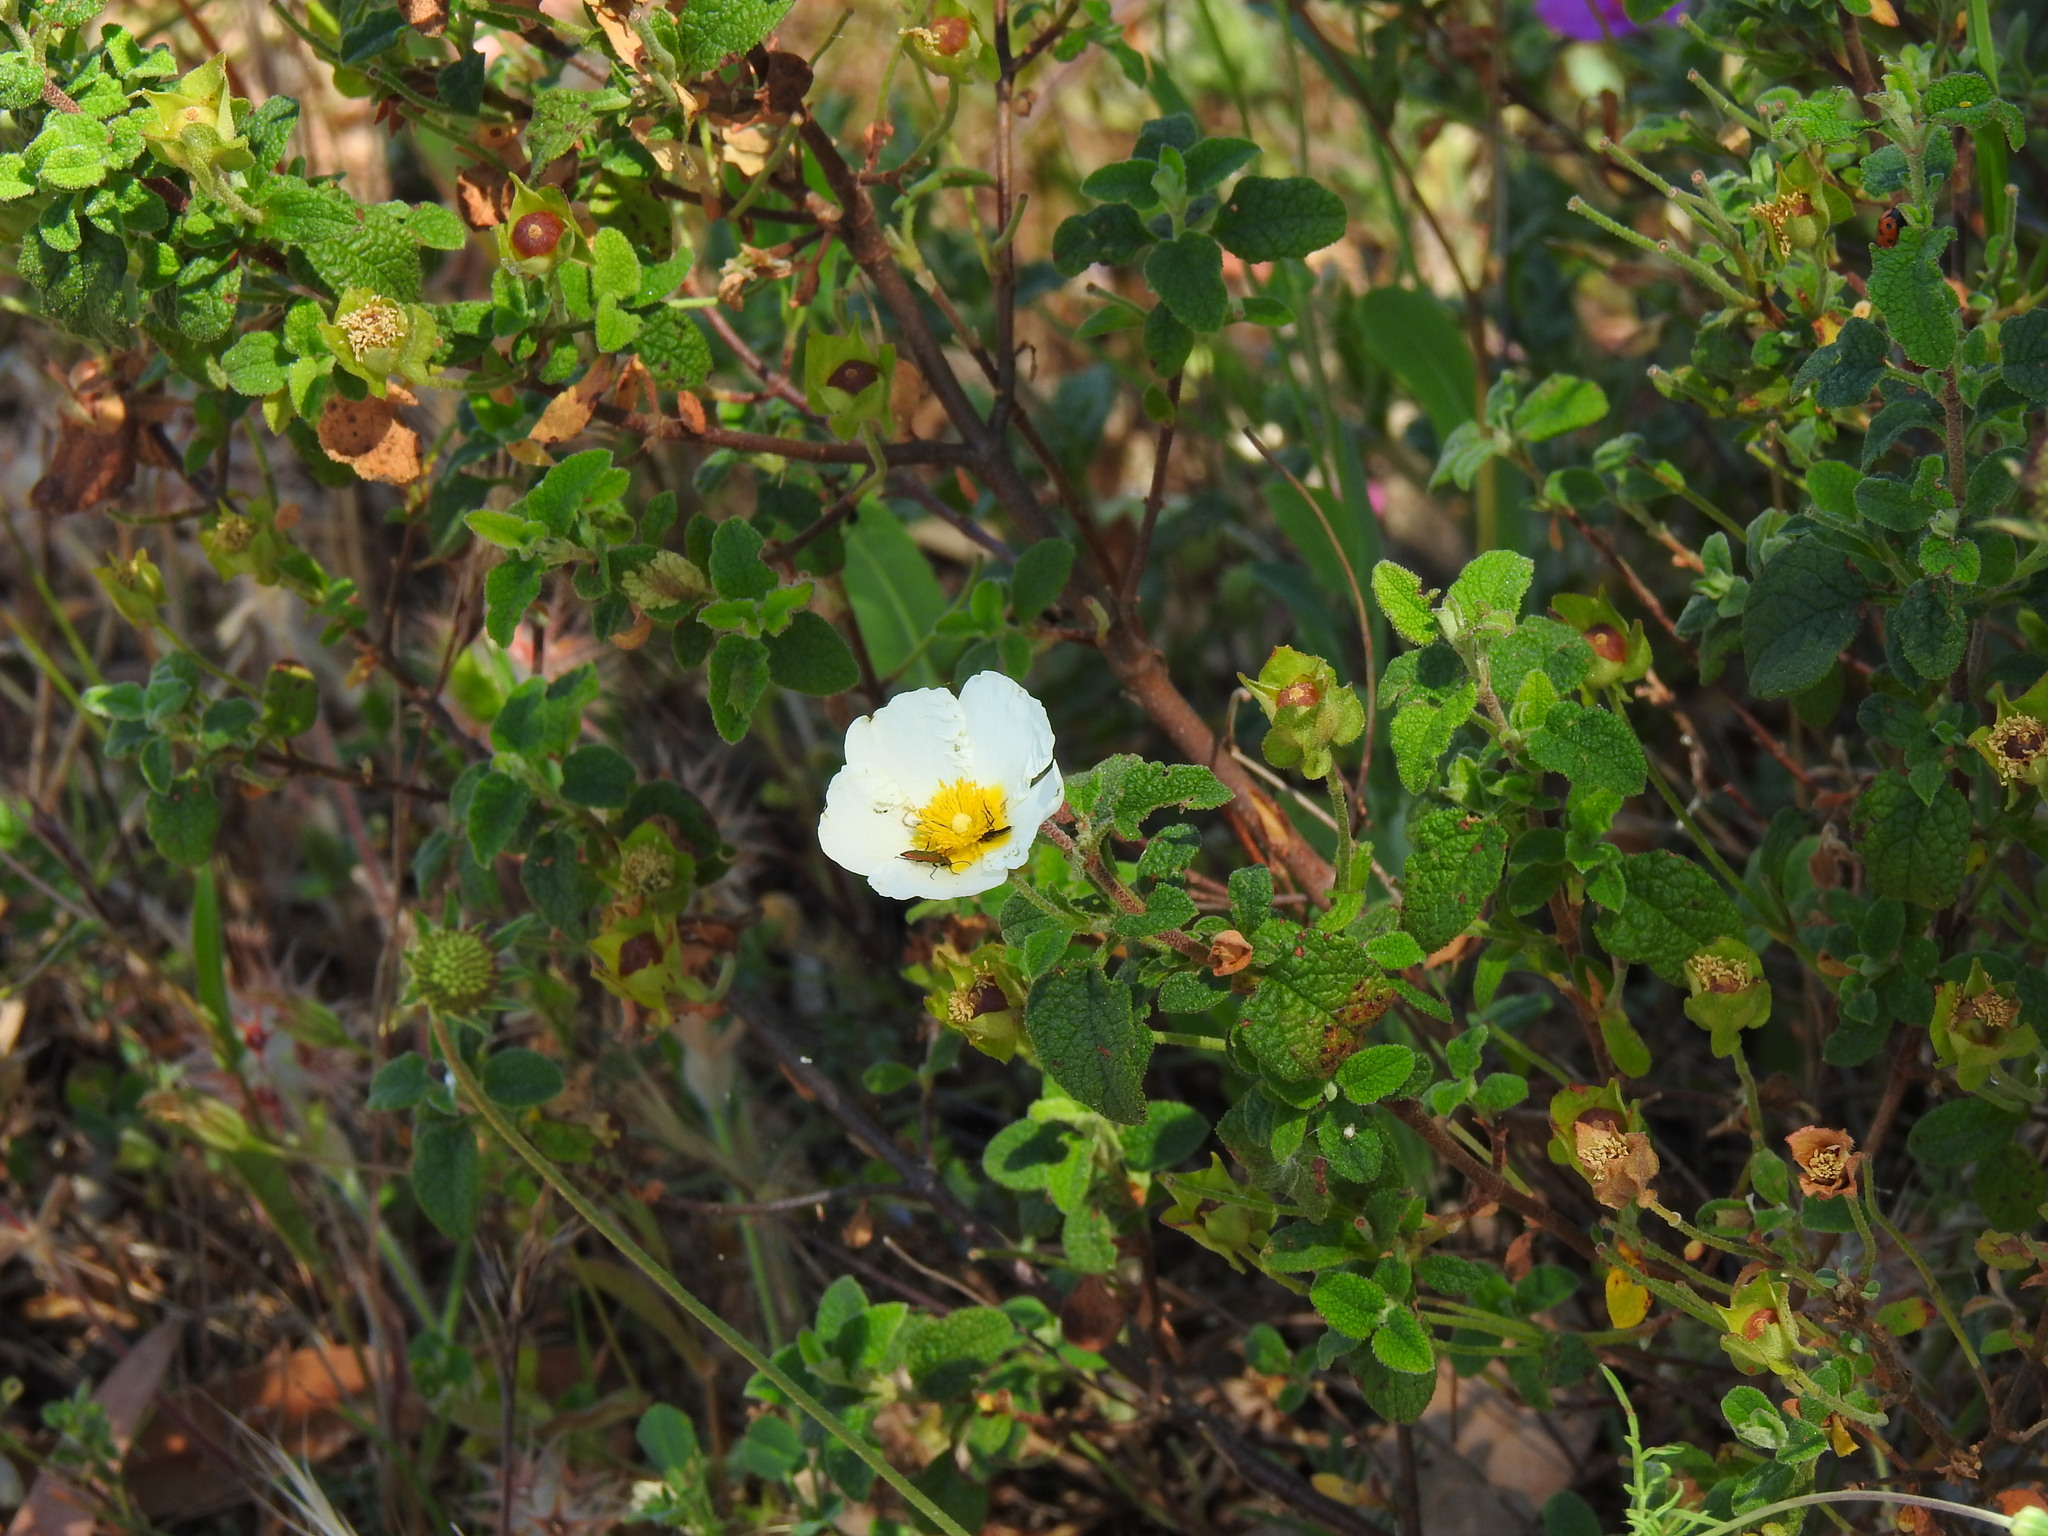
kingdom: Plantae
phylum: Tracheophyta
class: Magnoliopsida
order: Malvales
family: Cistaceae
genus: Cistus
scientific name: Cistus salviifolius
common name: Salvia cistus
